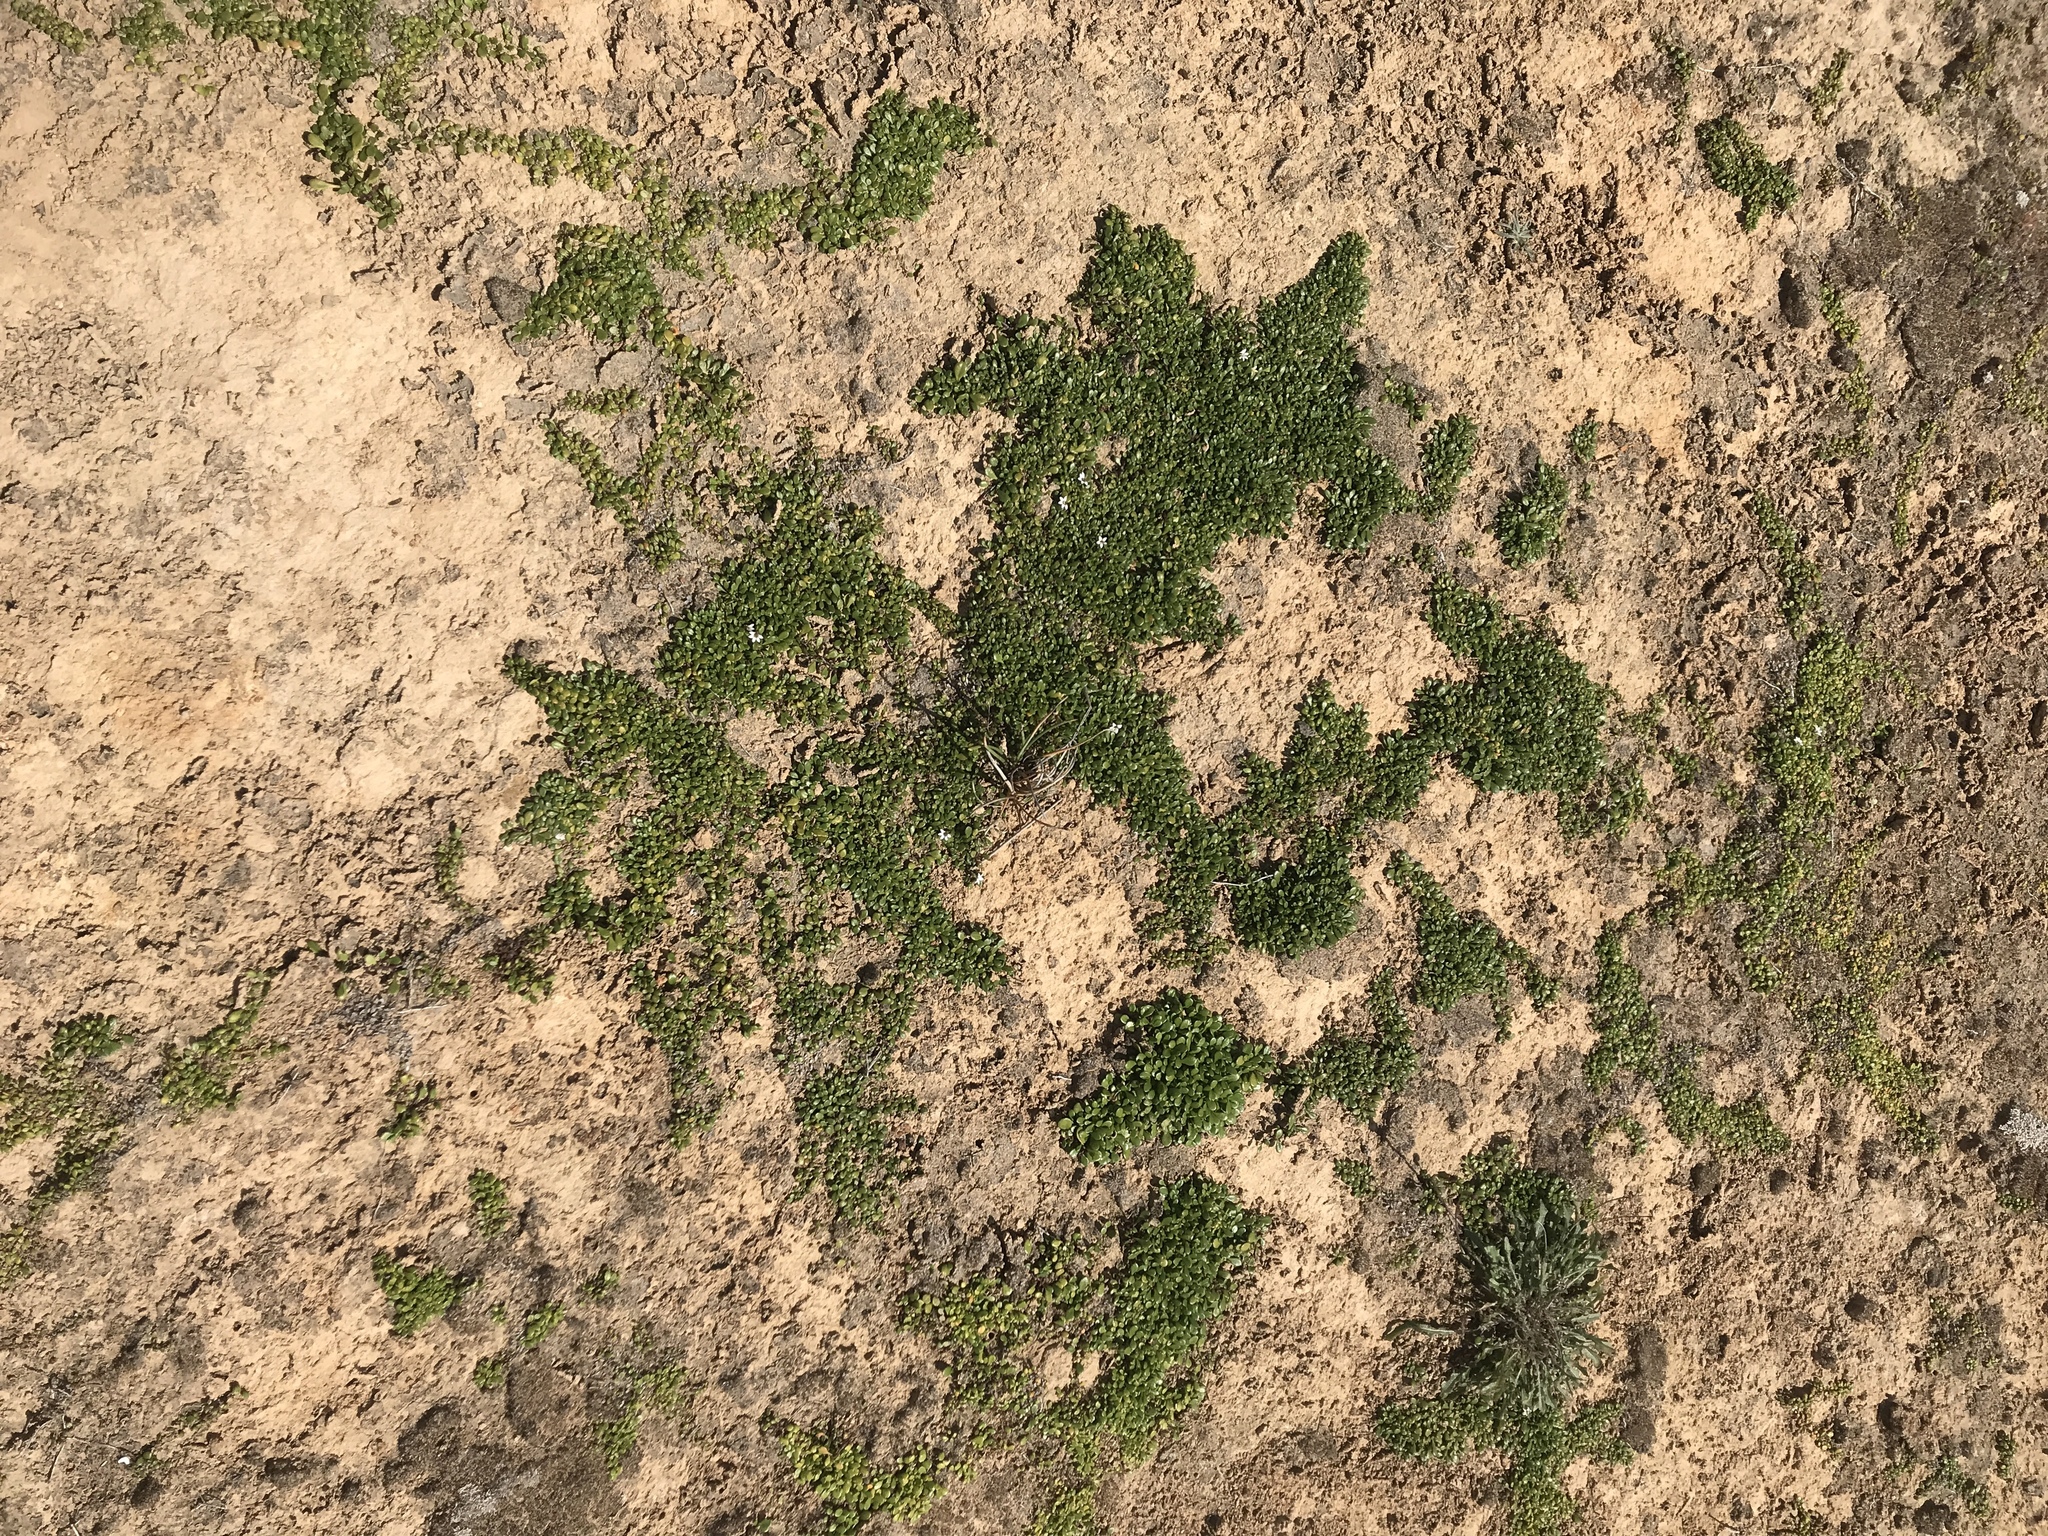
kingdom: Plantae
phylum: Tracheophyta
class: Magnoliopsida
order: Asterales
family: Goodeniaceae
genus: Goodenia
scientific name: Goodenia radicans
